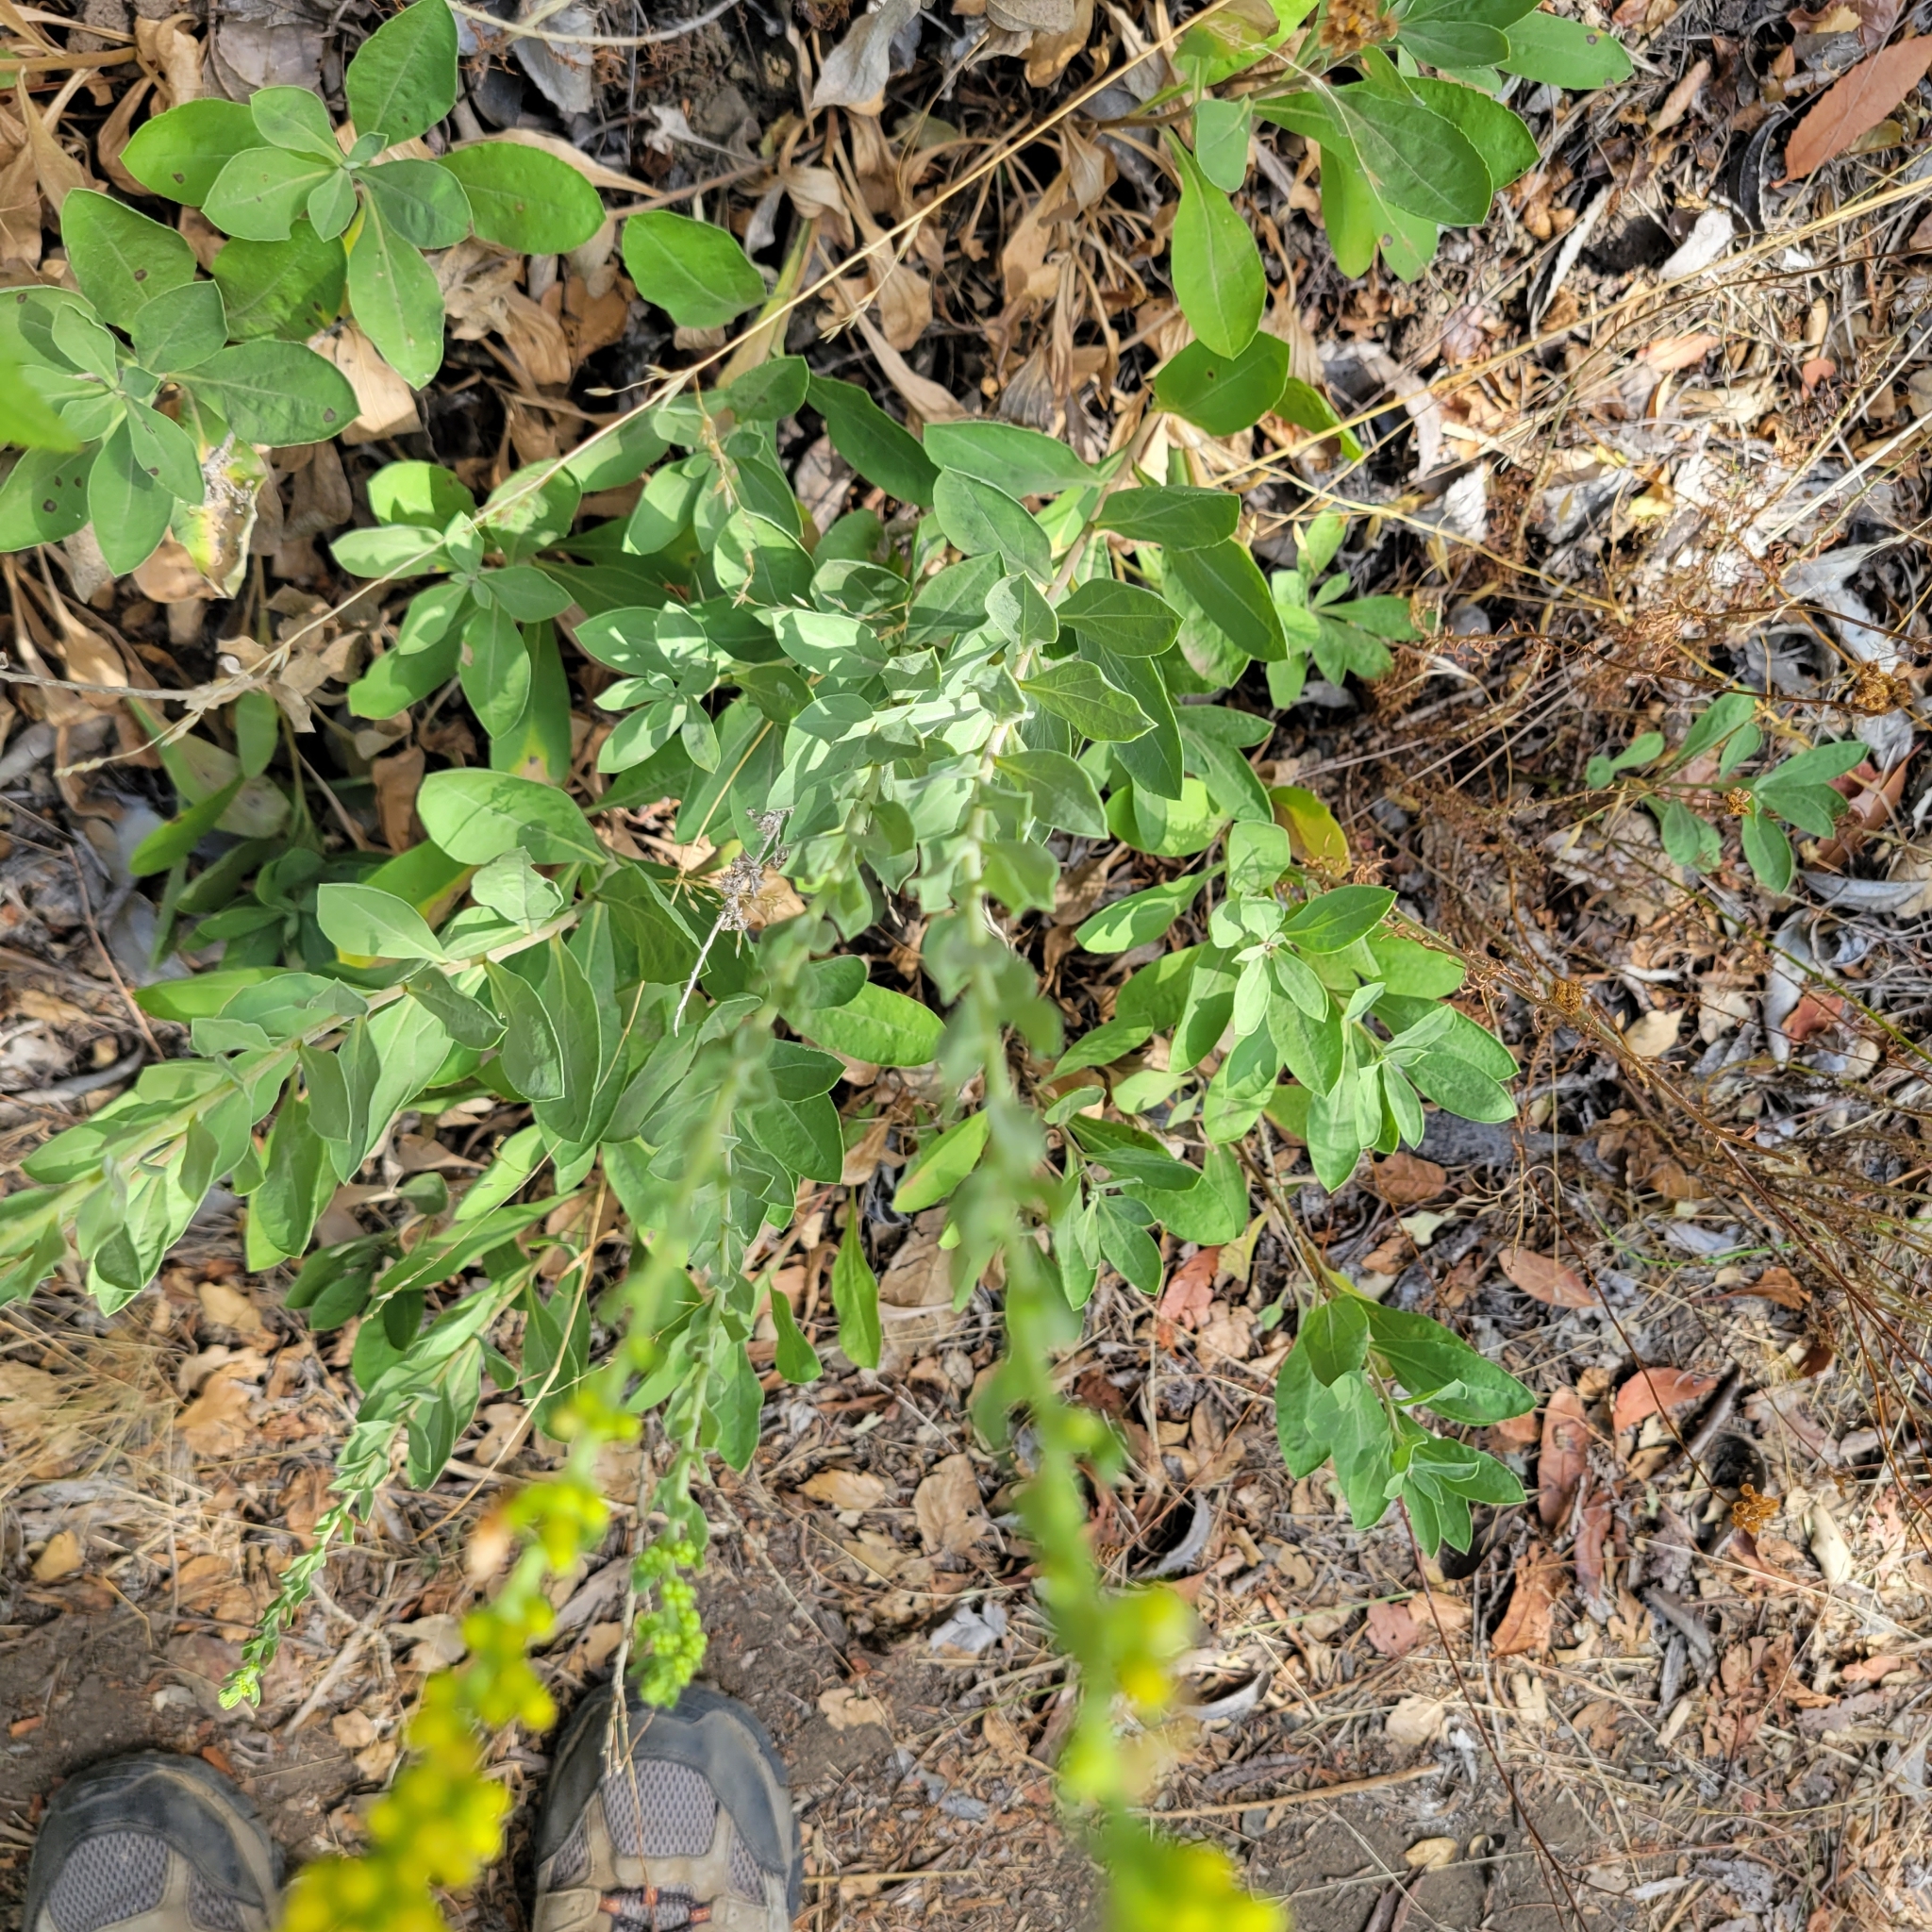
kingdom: Plantae
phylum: Tracheophyta
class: Magnoliopsida
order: Asterales
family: Asteraceae
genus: Solidago
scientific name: Solidago velutina
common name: Three-nerve goldenrod
